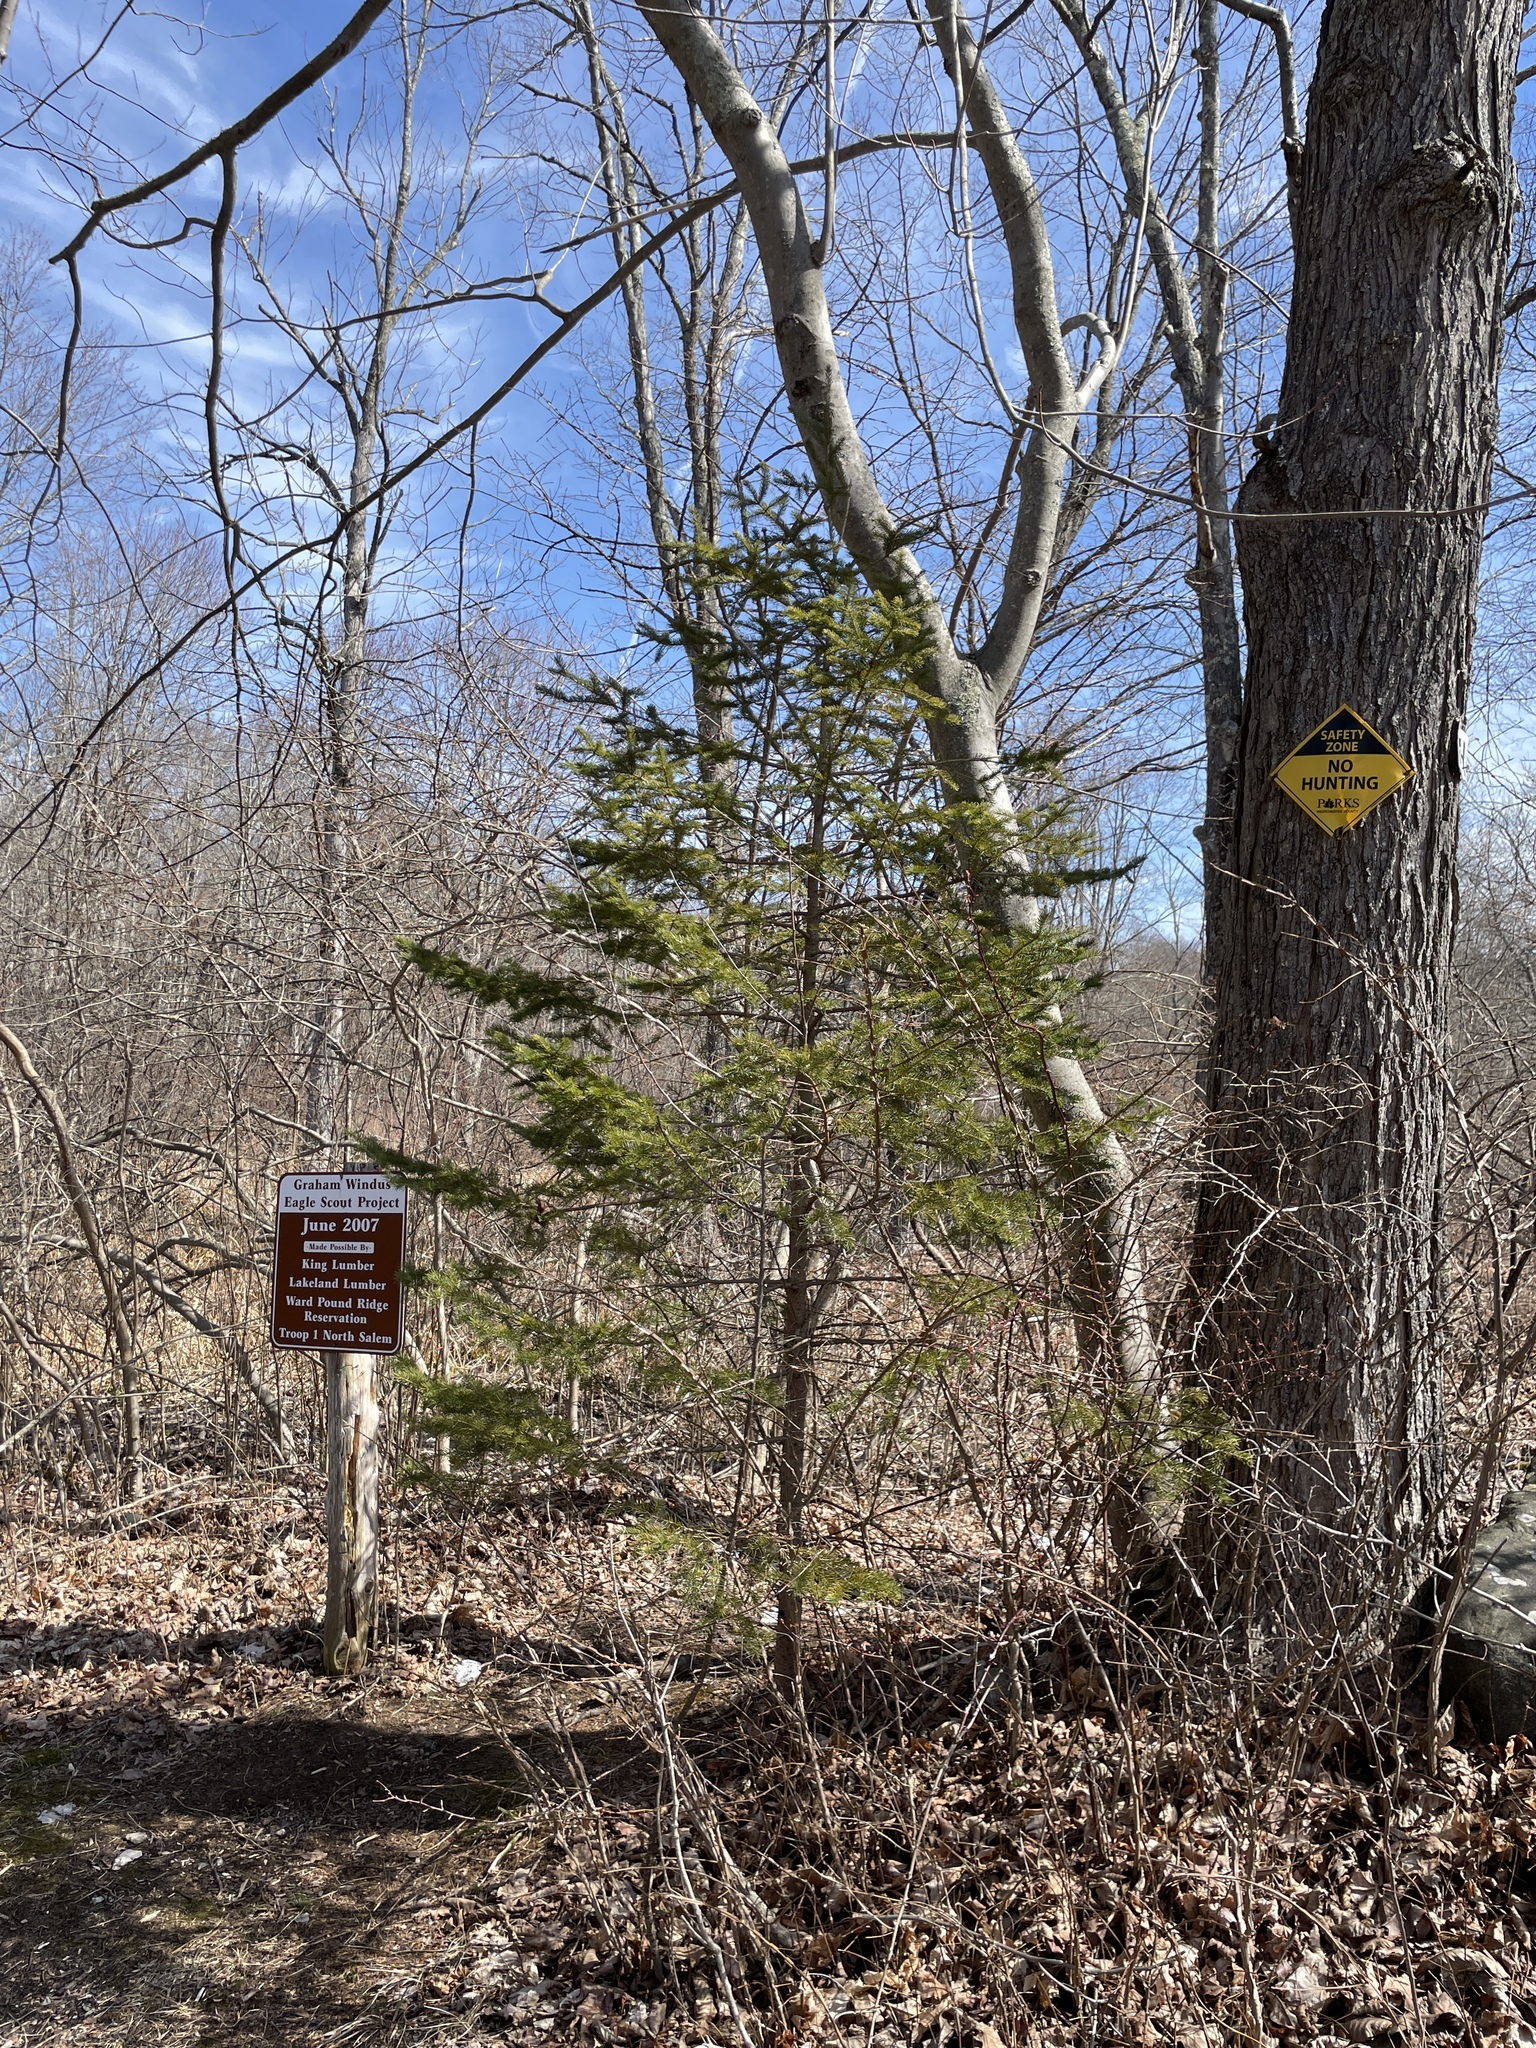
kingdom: Plantae
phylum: Tracheophyta
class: Pinopsida
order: Pinales
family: Pinaceae
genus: Picea
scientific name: Picea abies
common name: Norway spruce
